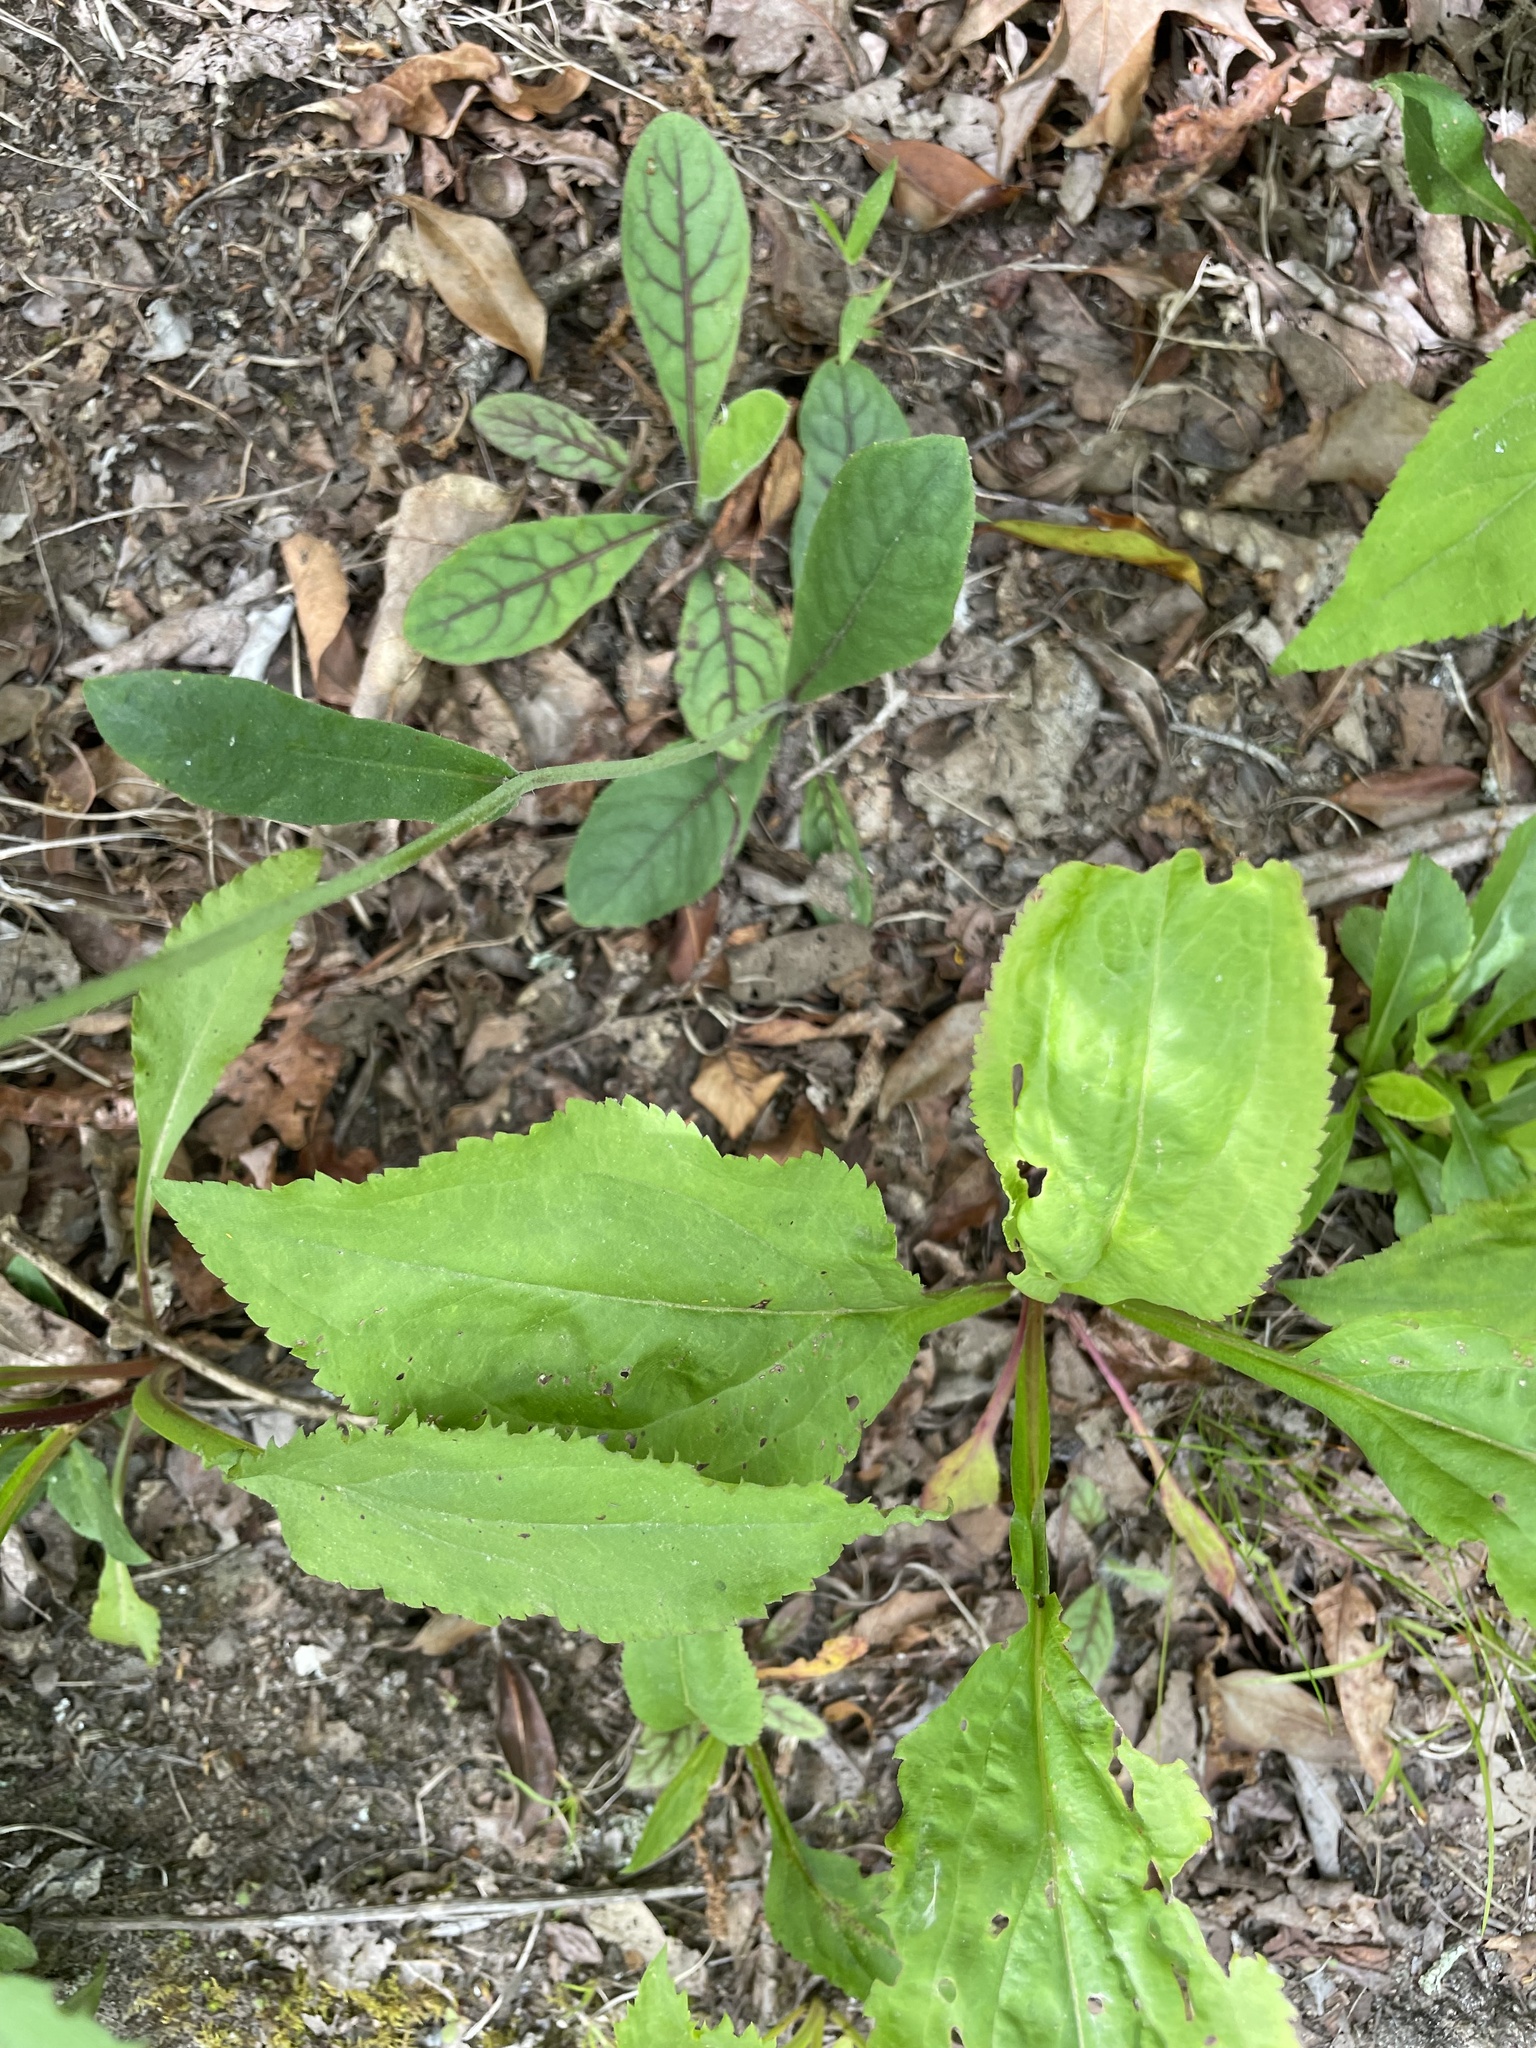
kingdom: Plantae
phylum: Tracheophyta
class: Magnoliopsida
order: Asterales
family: Asteraceae
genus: Hieracium
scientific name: Hieracium venosum
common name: Rattlesnake hawkweed
